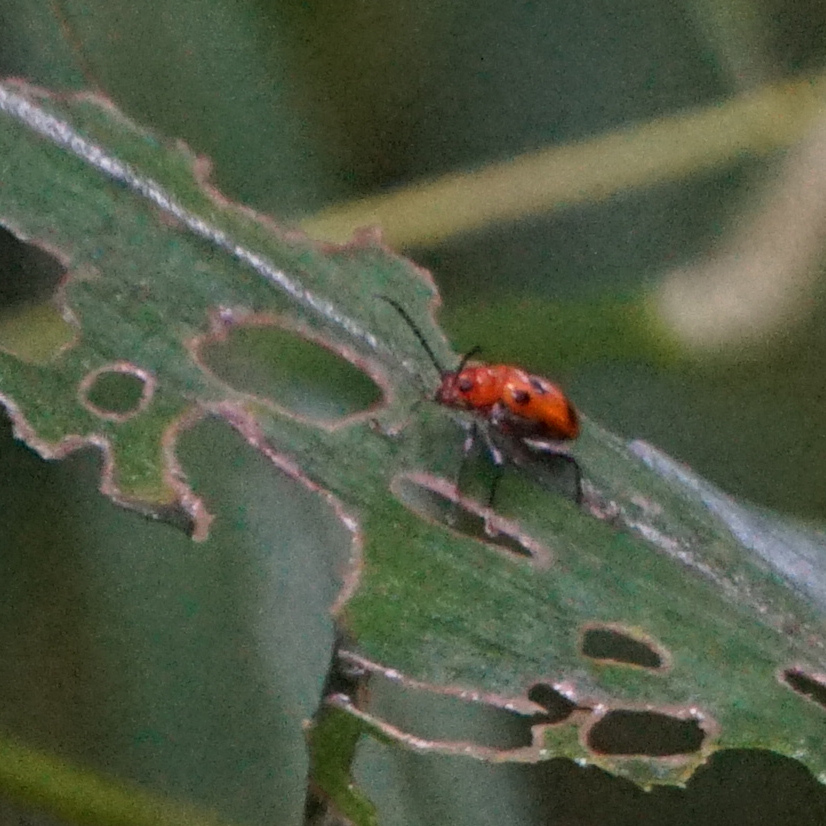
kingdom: Animalia
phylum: Arthropoda
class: Insecta
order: Coleoptera
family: Chrysomelidae
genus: Neolema
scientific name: Neolema sexpunctata
